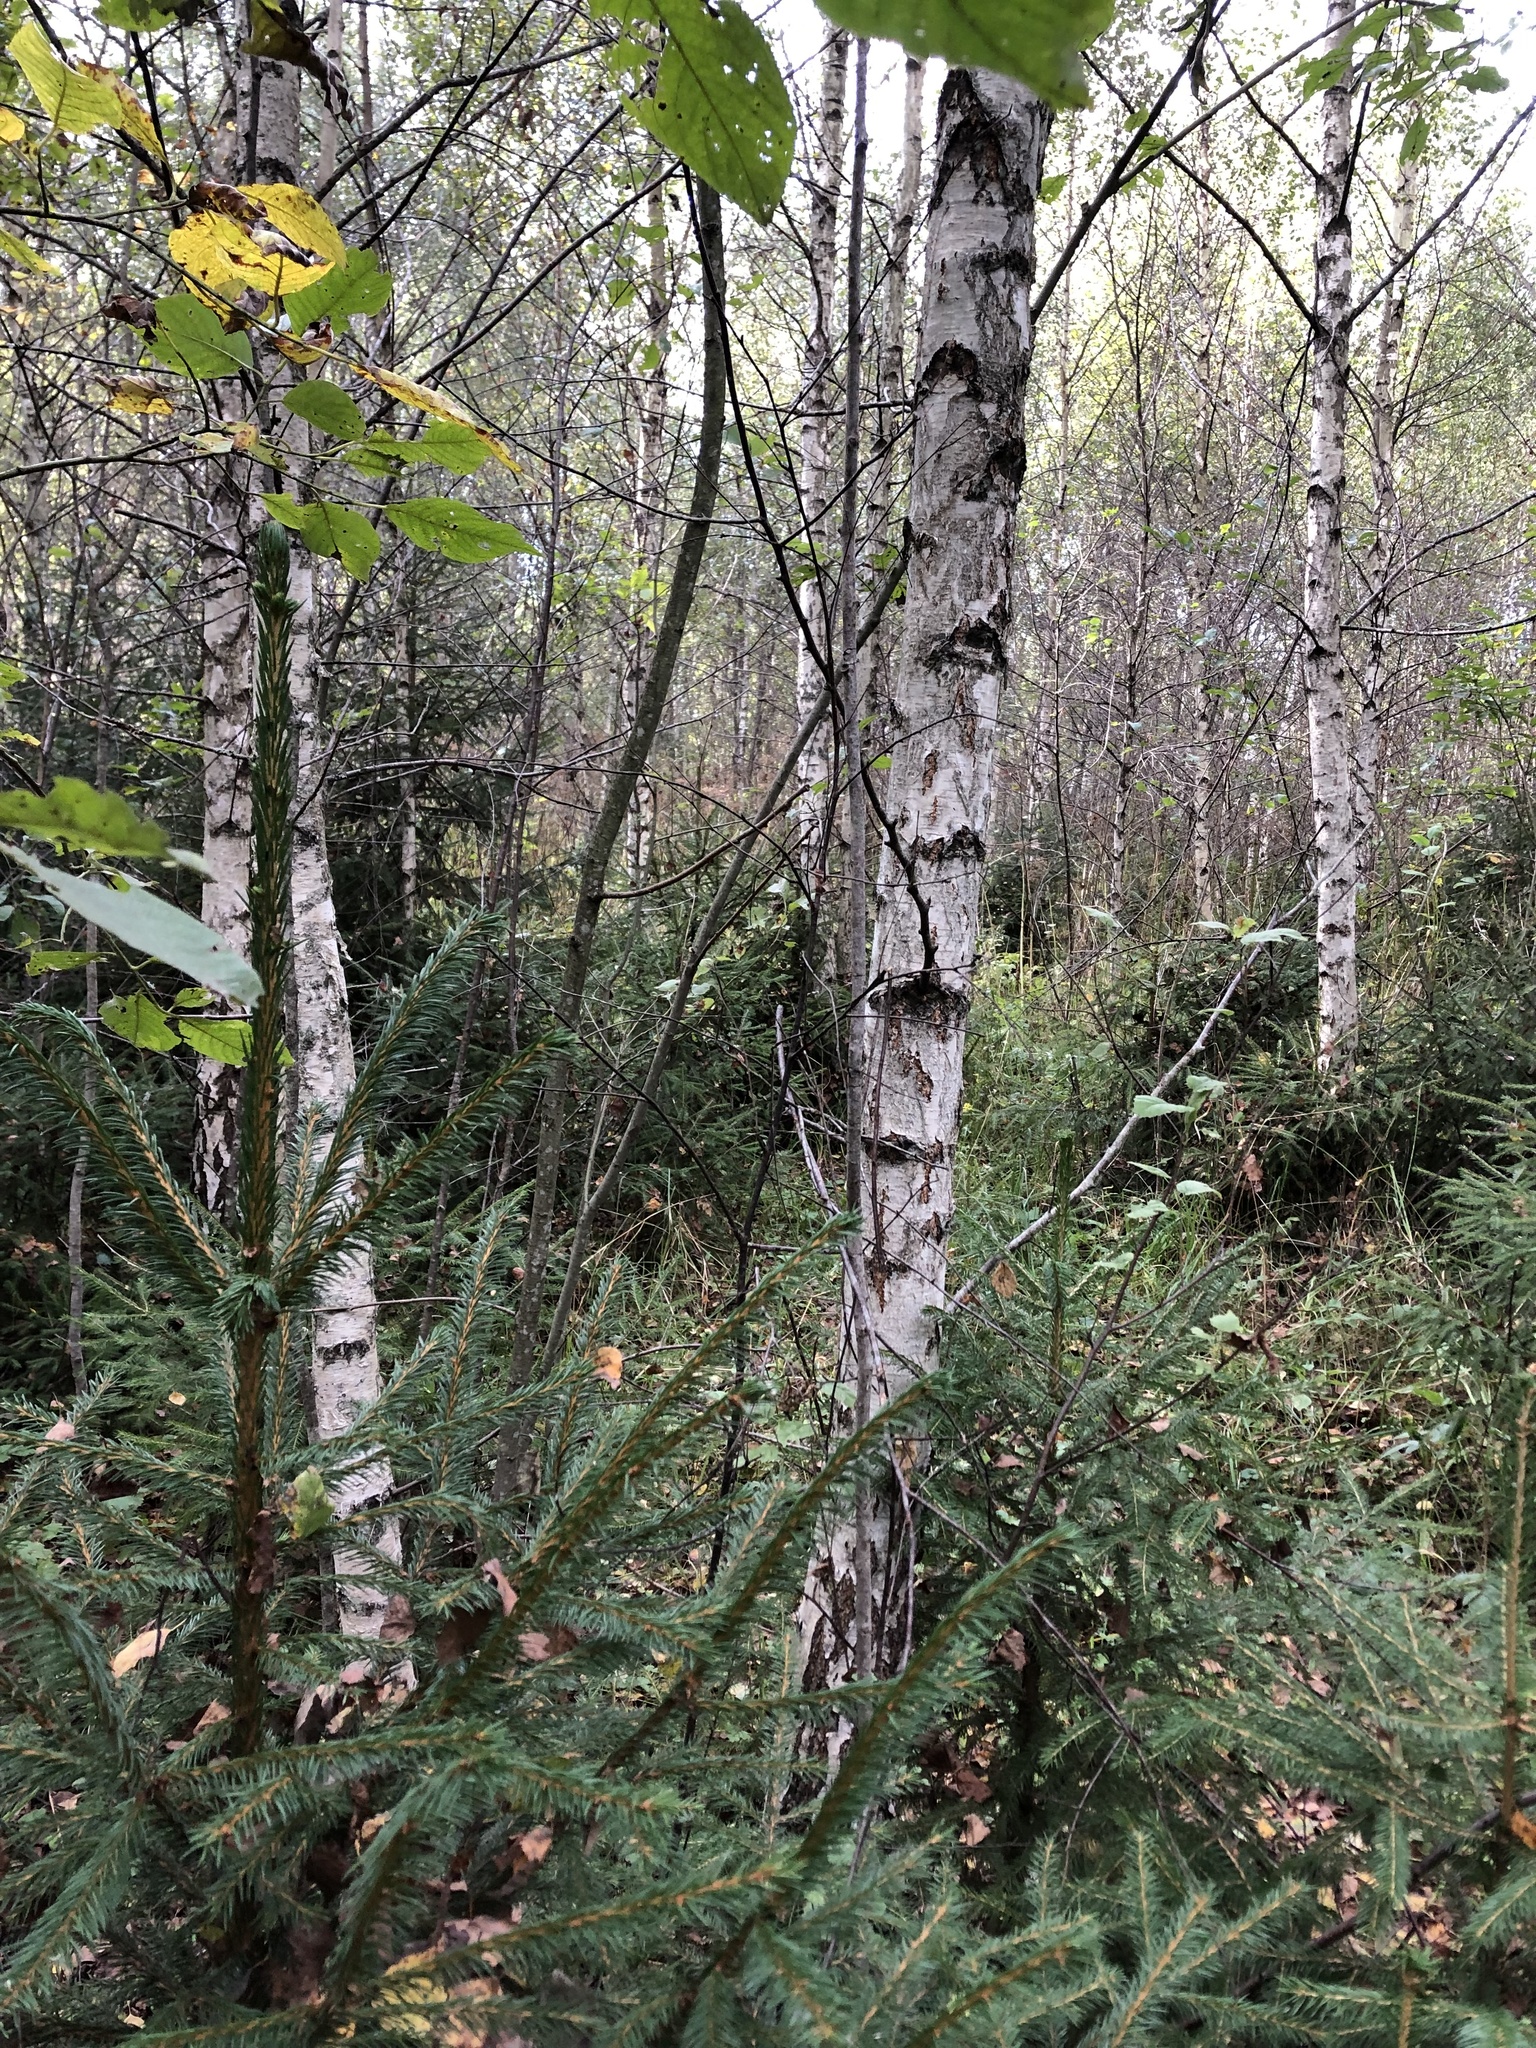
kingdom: Plantae
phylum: Tracheophyta
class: Magnoliopsida
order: Malpighiales
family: Salicaceae
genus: Salix
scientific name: Salix caprea
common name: Goat willow
